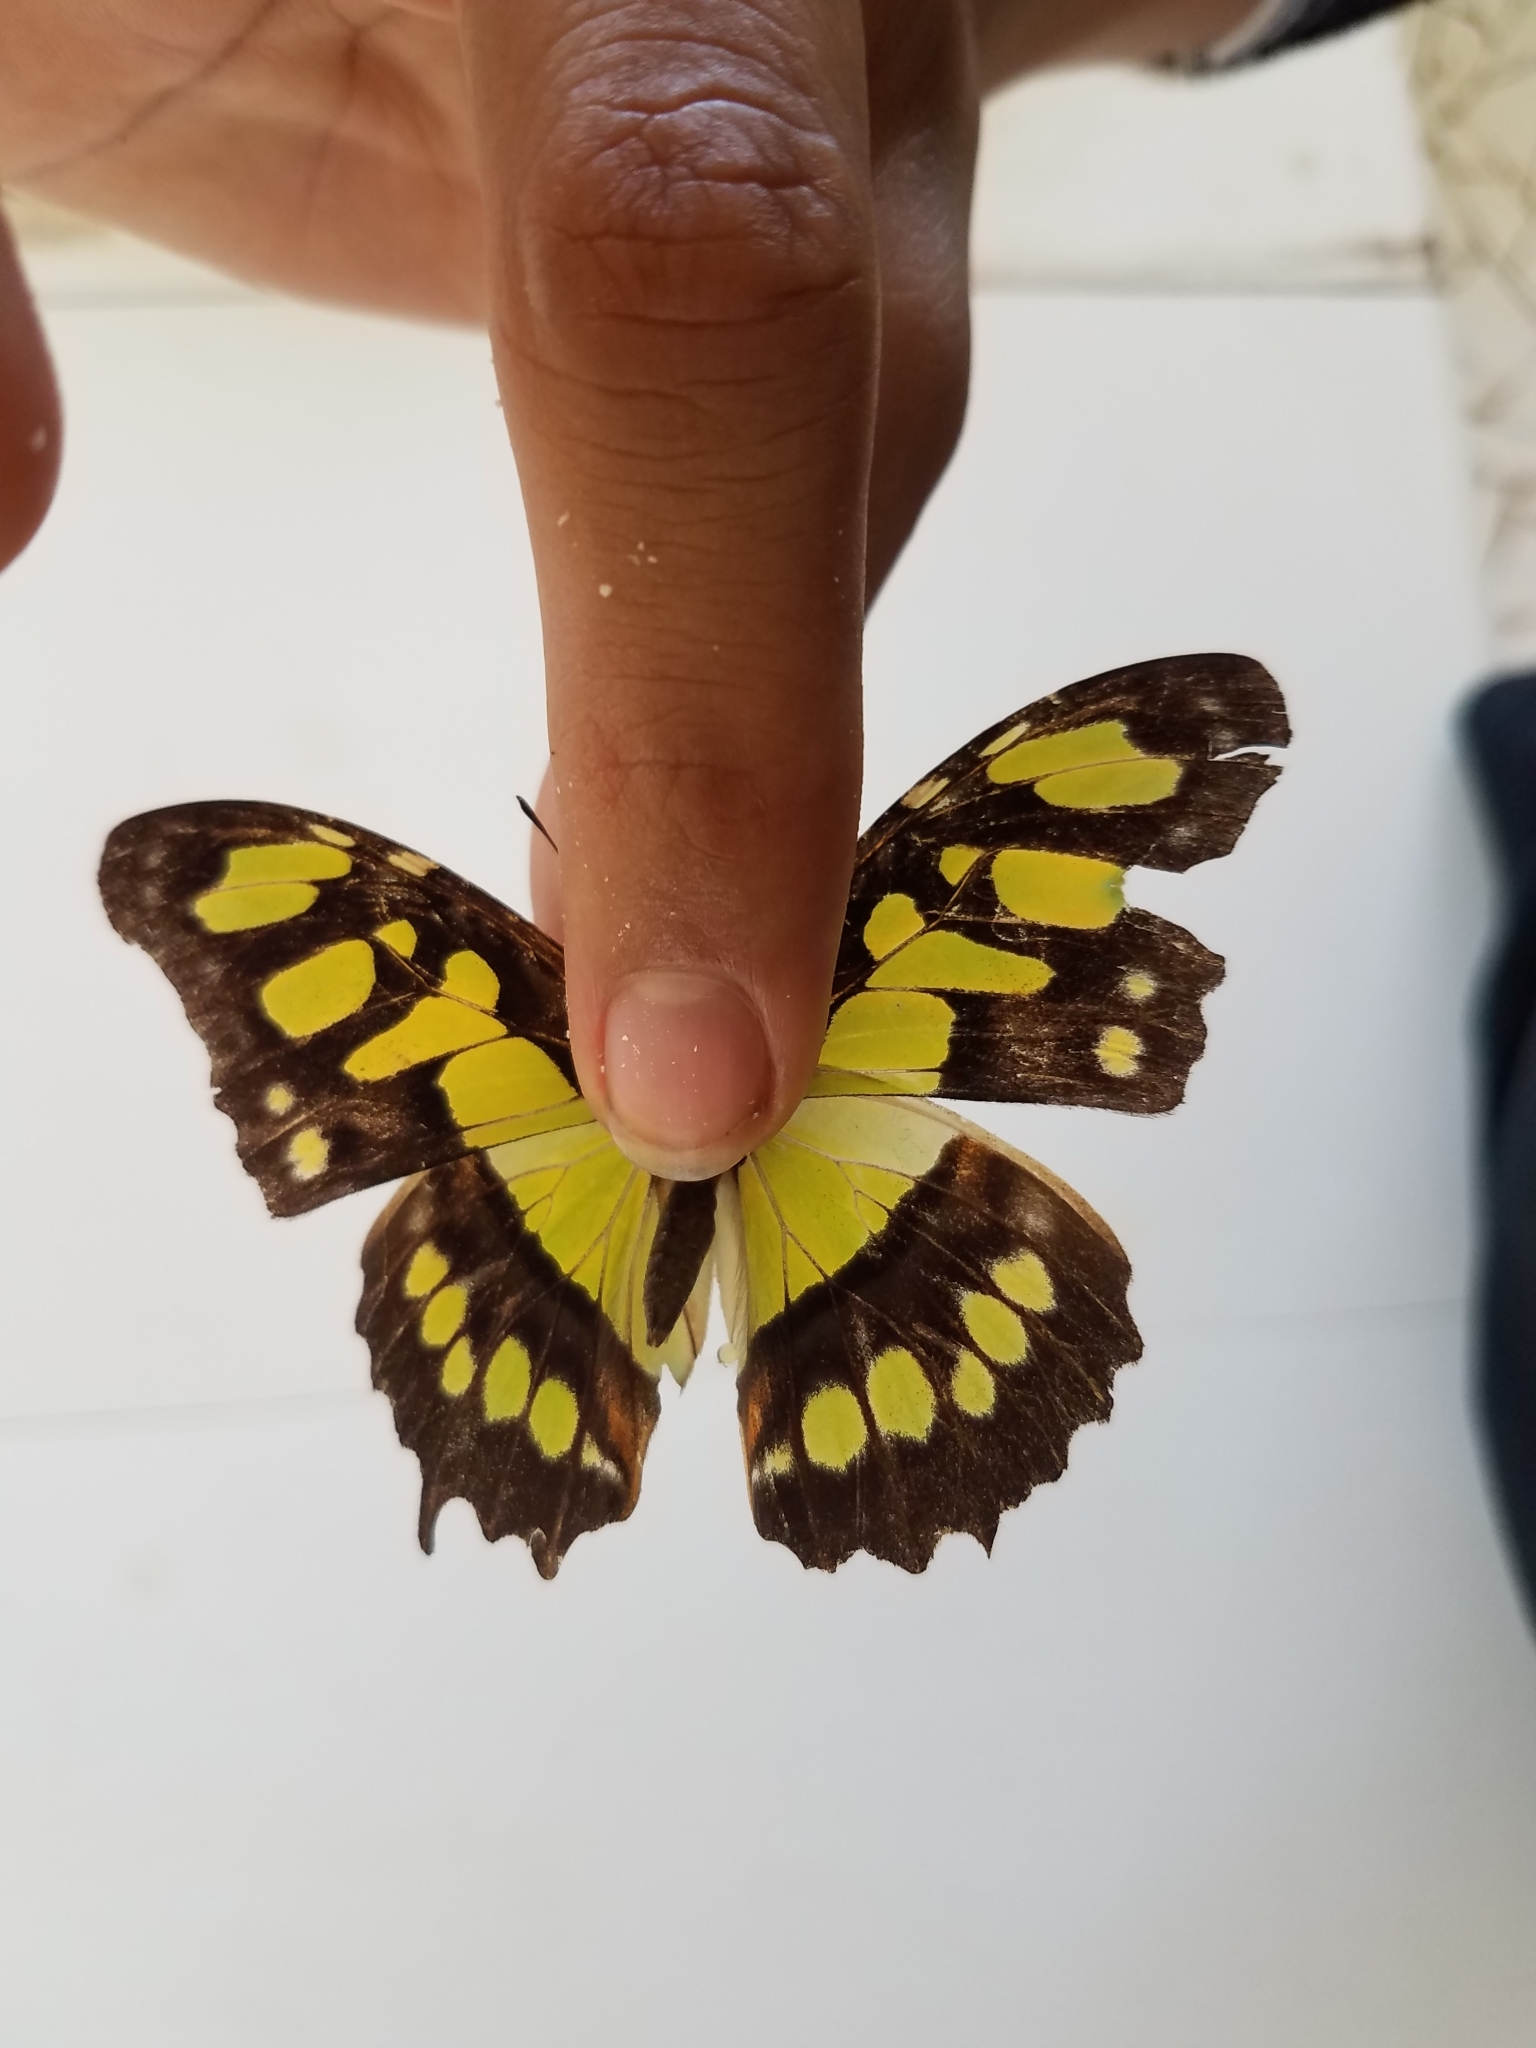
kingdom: Animalia
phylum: Arthropoda
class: Insecta
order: Lepidoptera
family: Nymphalidae
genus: Siproeta
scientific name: Siproeta stelenes
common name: Malachite
